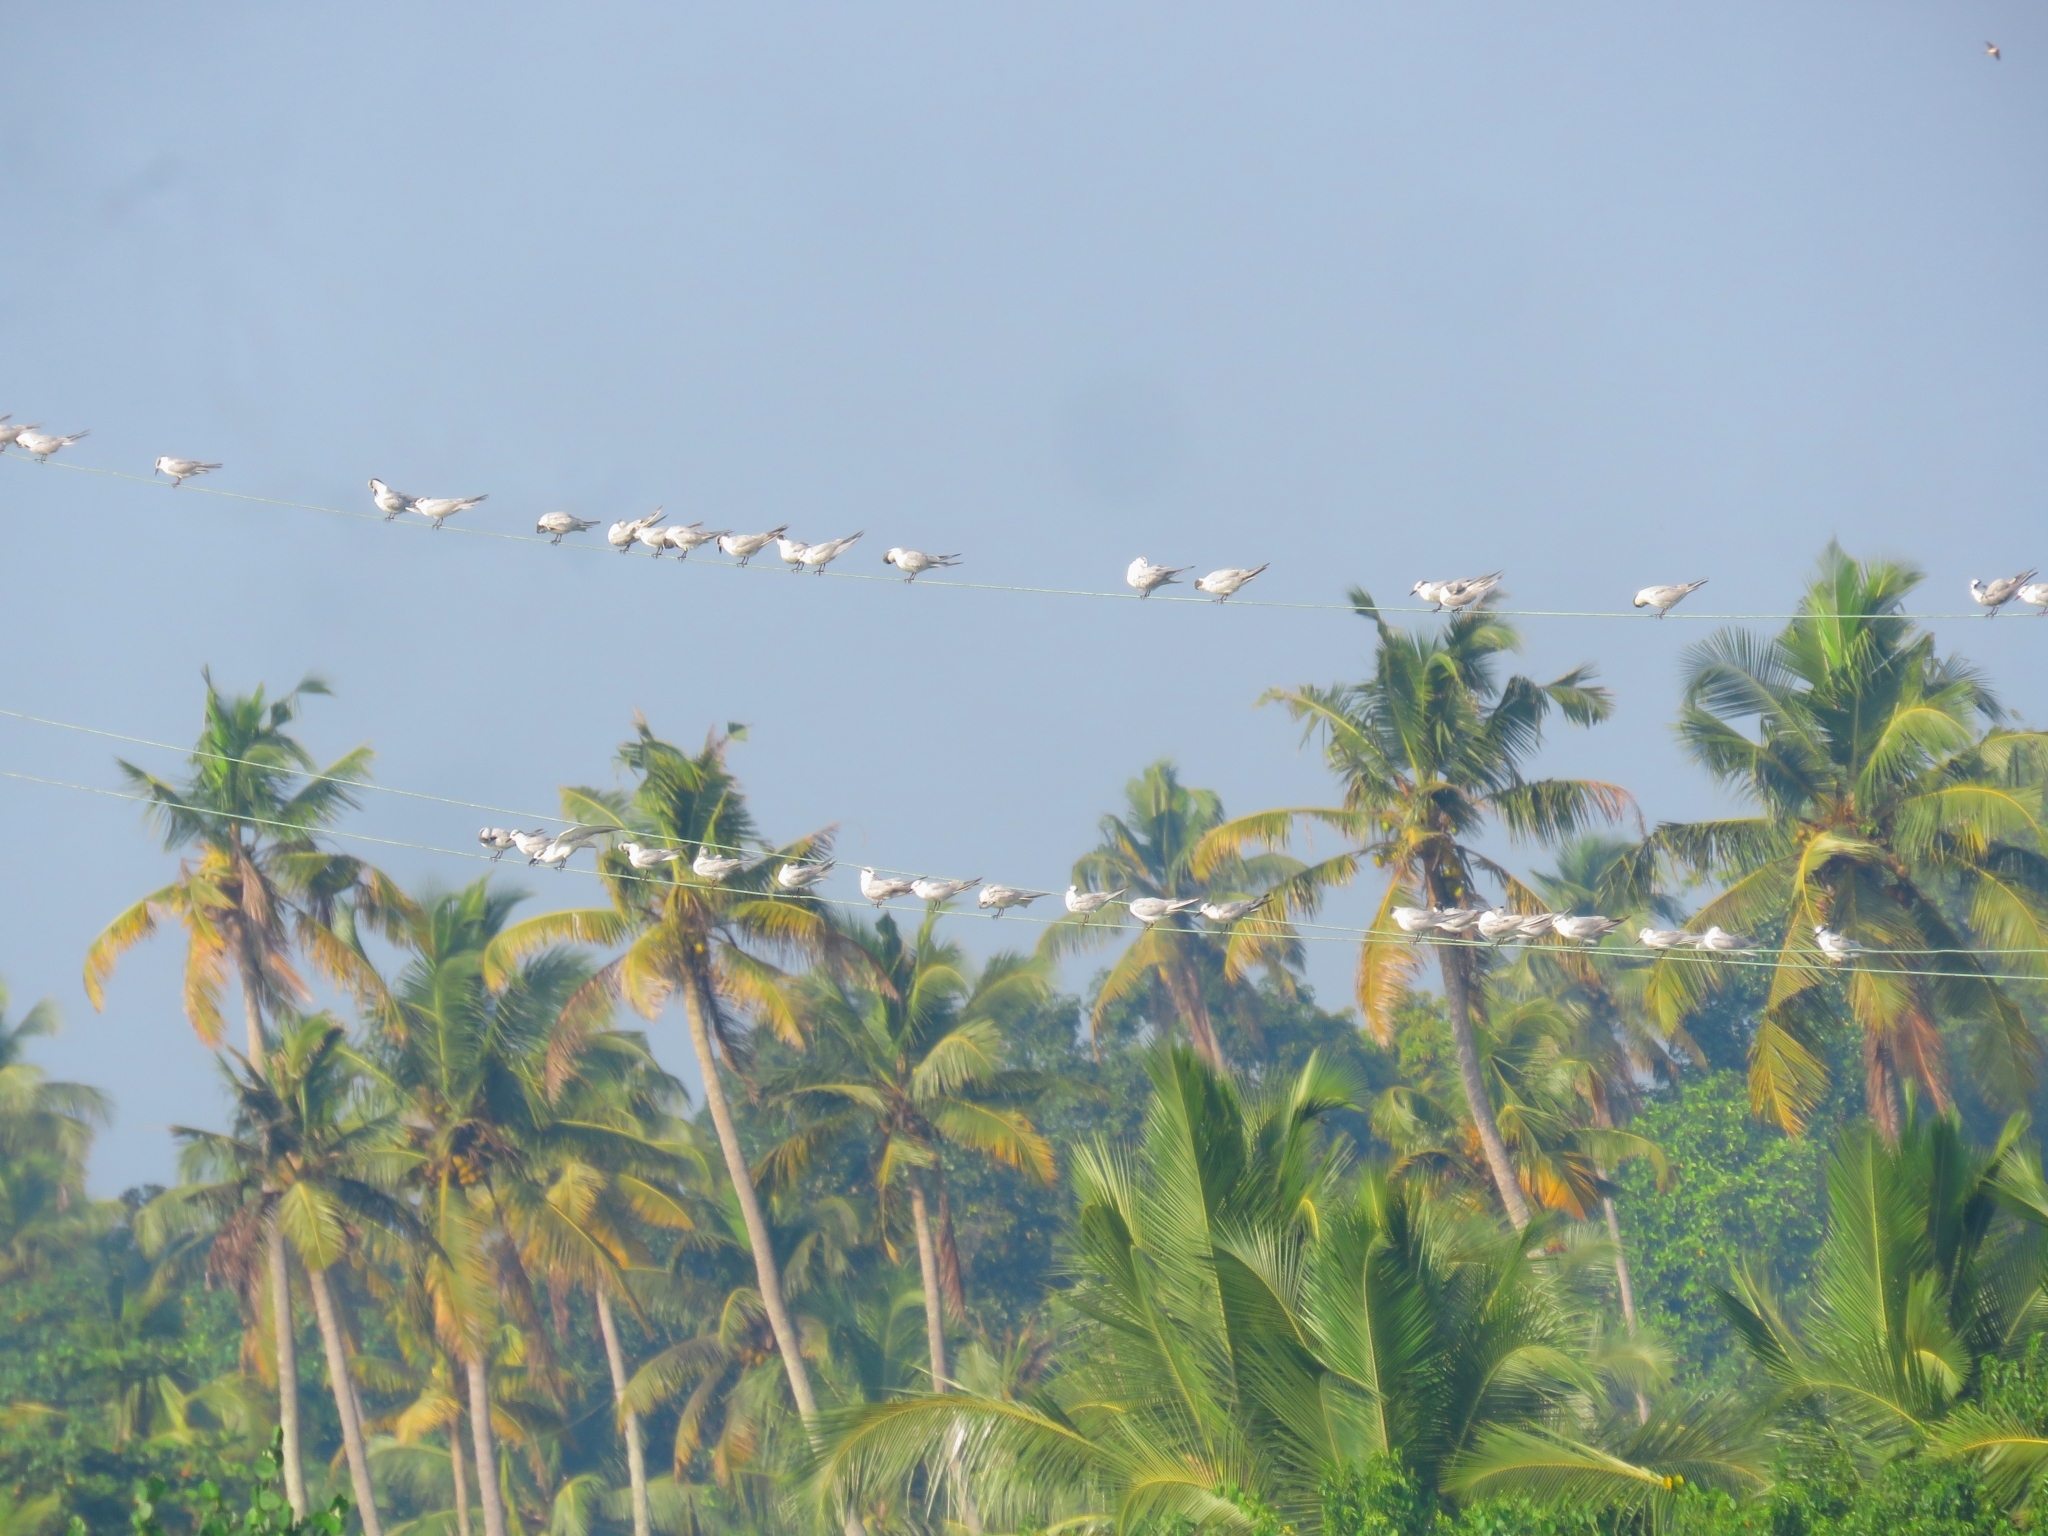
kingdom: Animalia
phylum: Chordata
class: Aves
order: Charadriiformes
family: Laridae
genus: Chlidonias
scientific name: Chlidonias hybrida
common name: Whiskered tern
